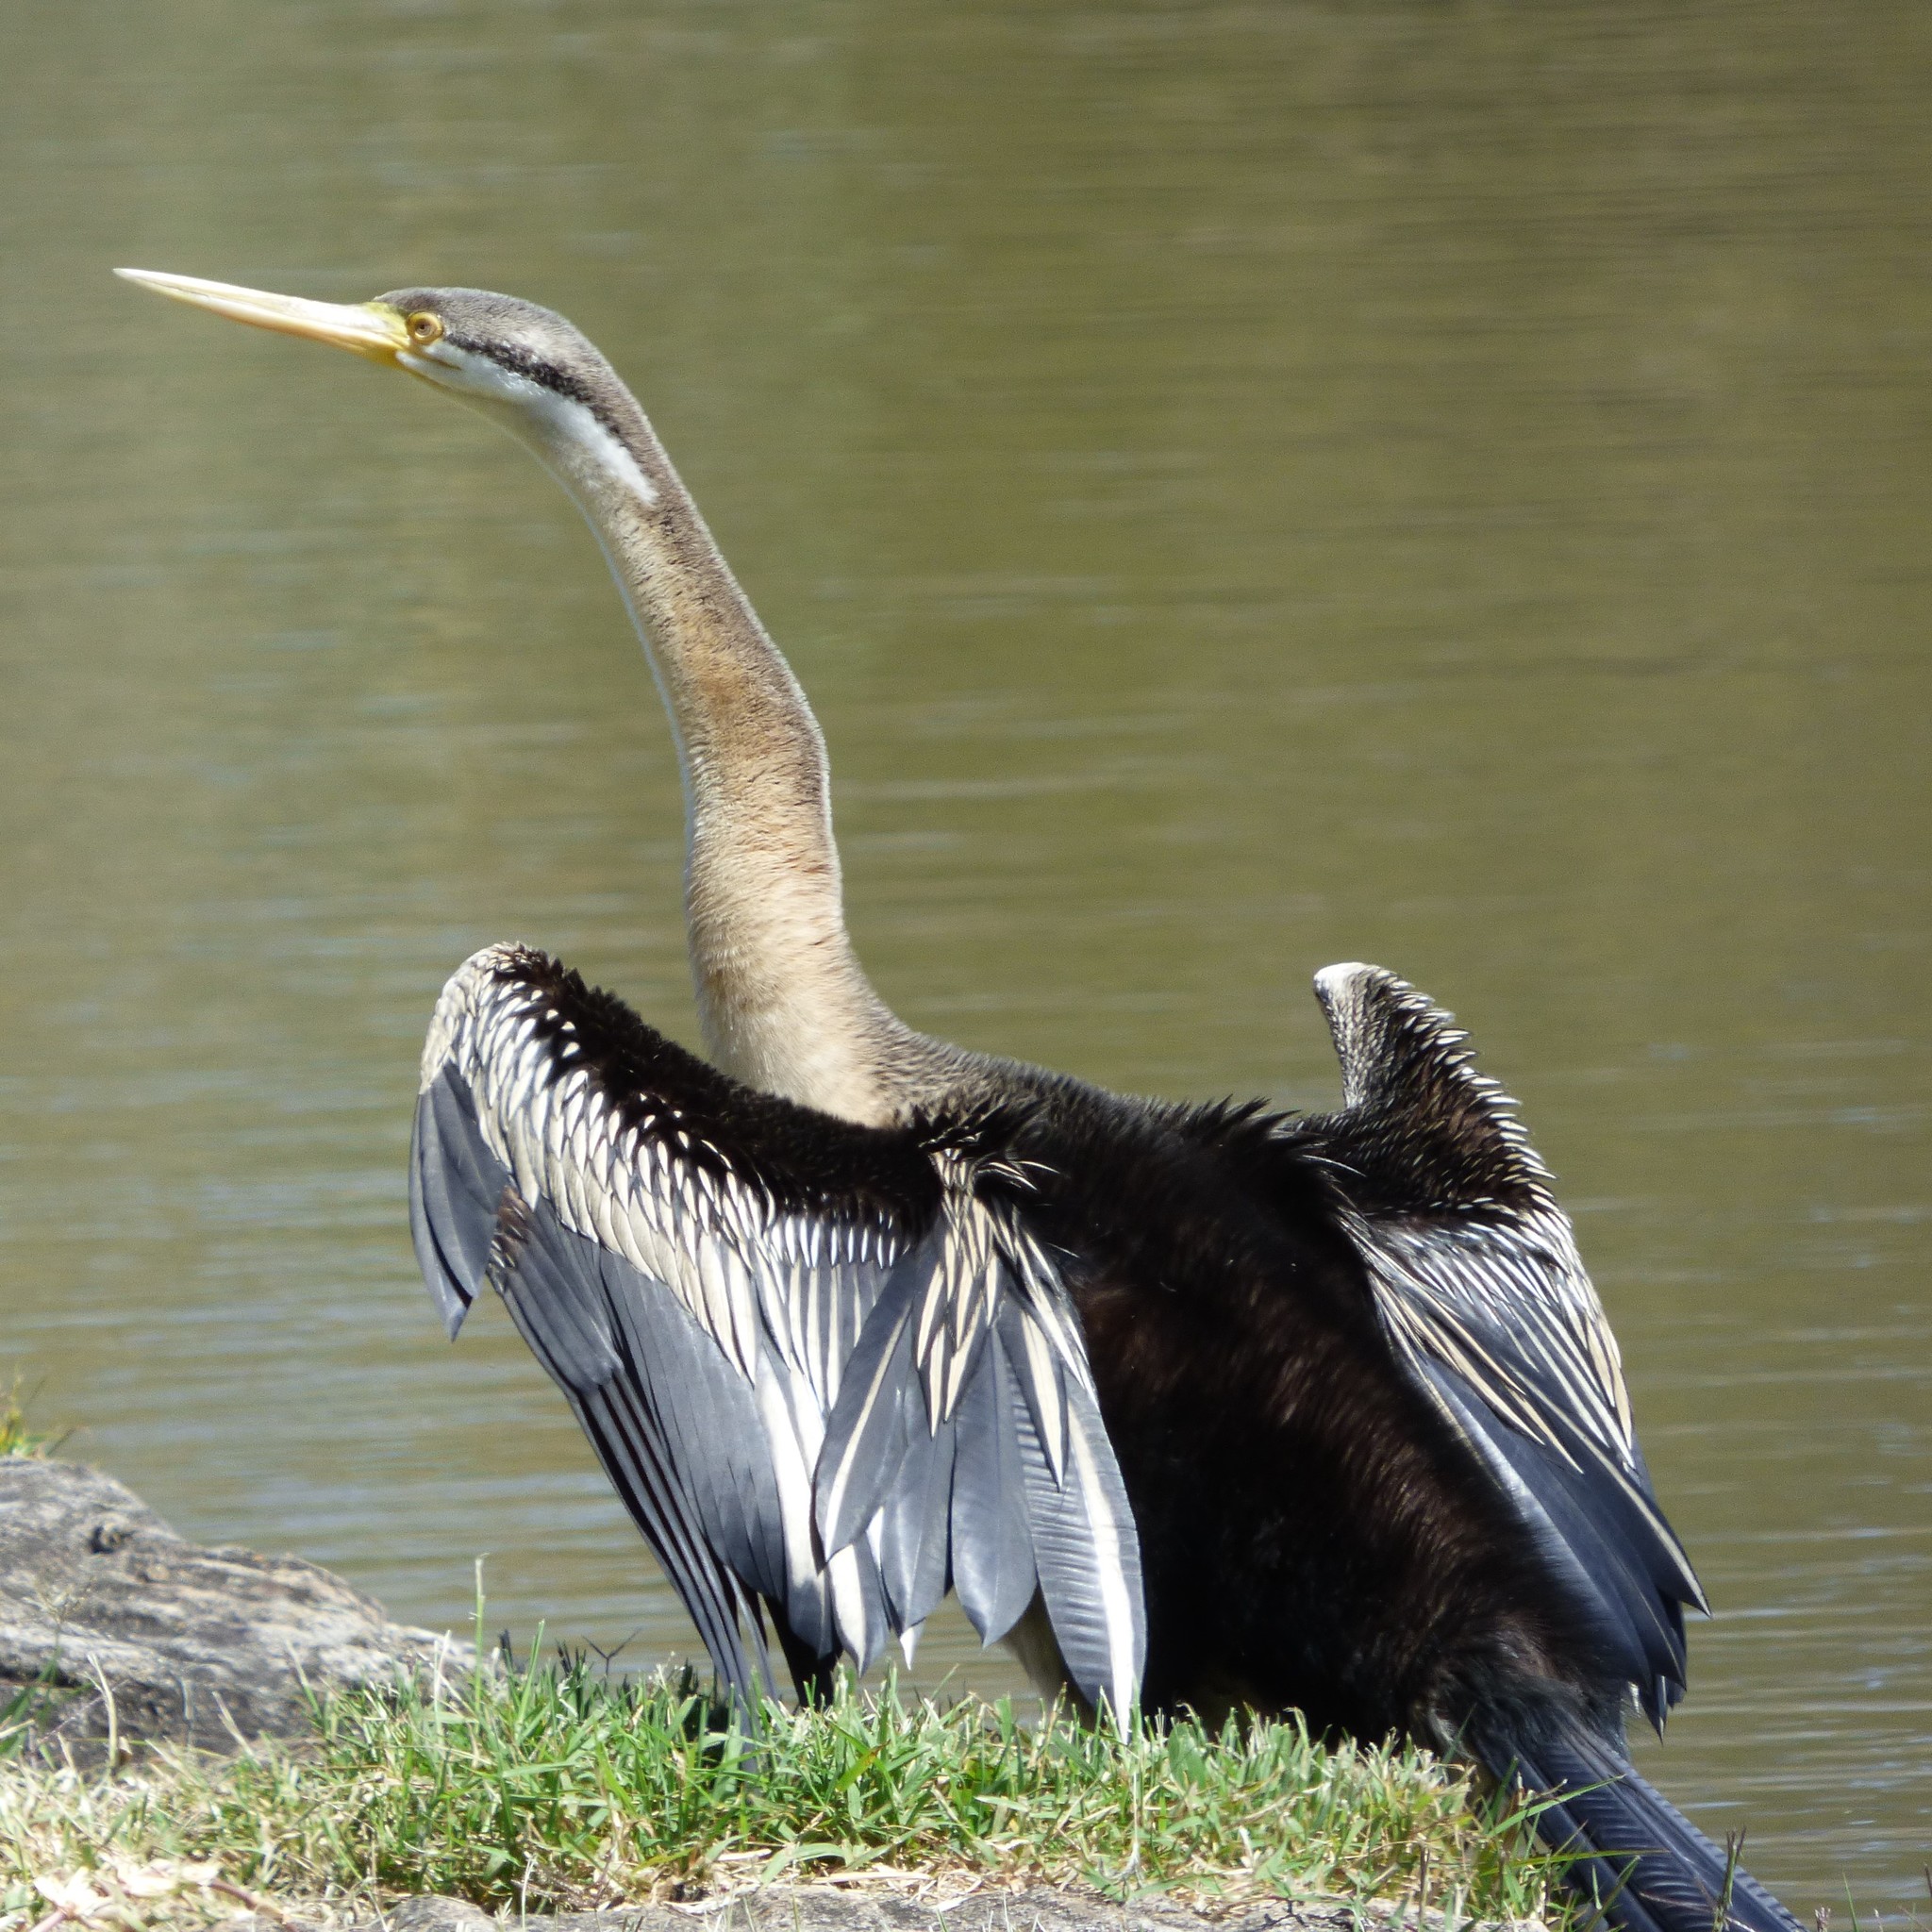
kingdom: Animalia
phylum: Chordata
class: Aves
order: Suliformes
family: Anhingidae
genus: Anhinga
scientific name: Anhinga novaehollandiae
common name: Australasian darter
